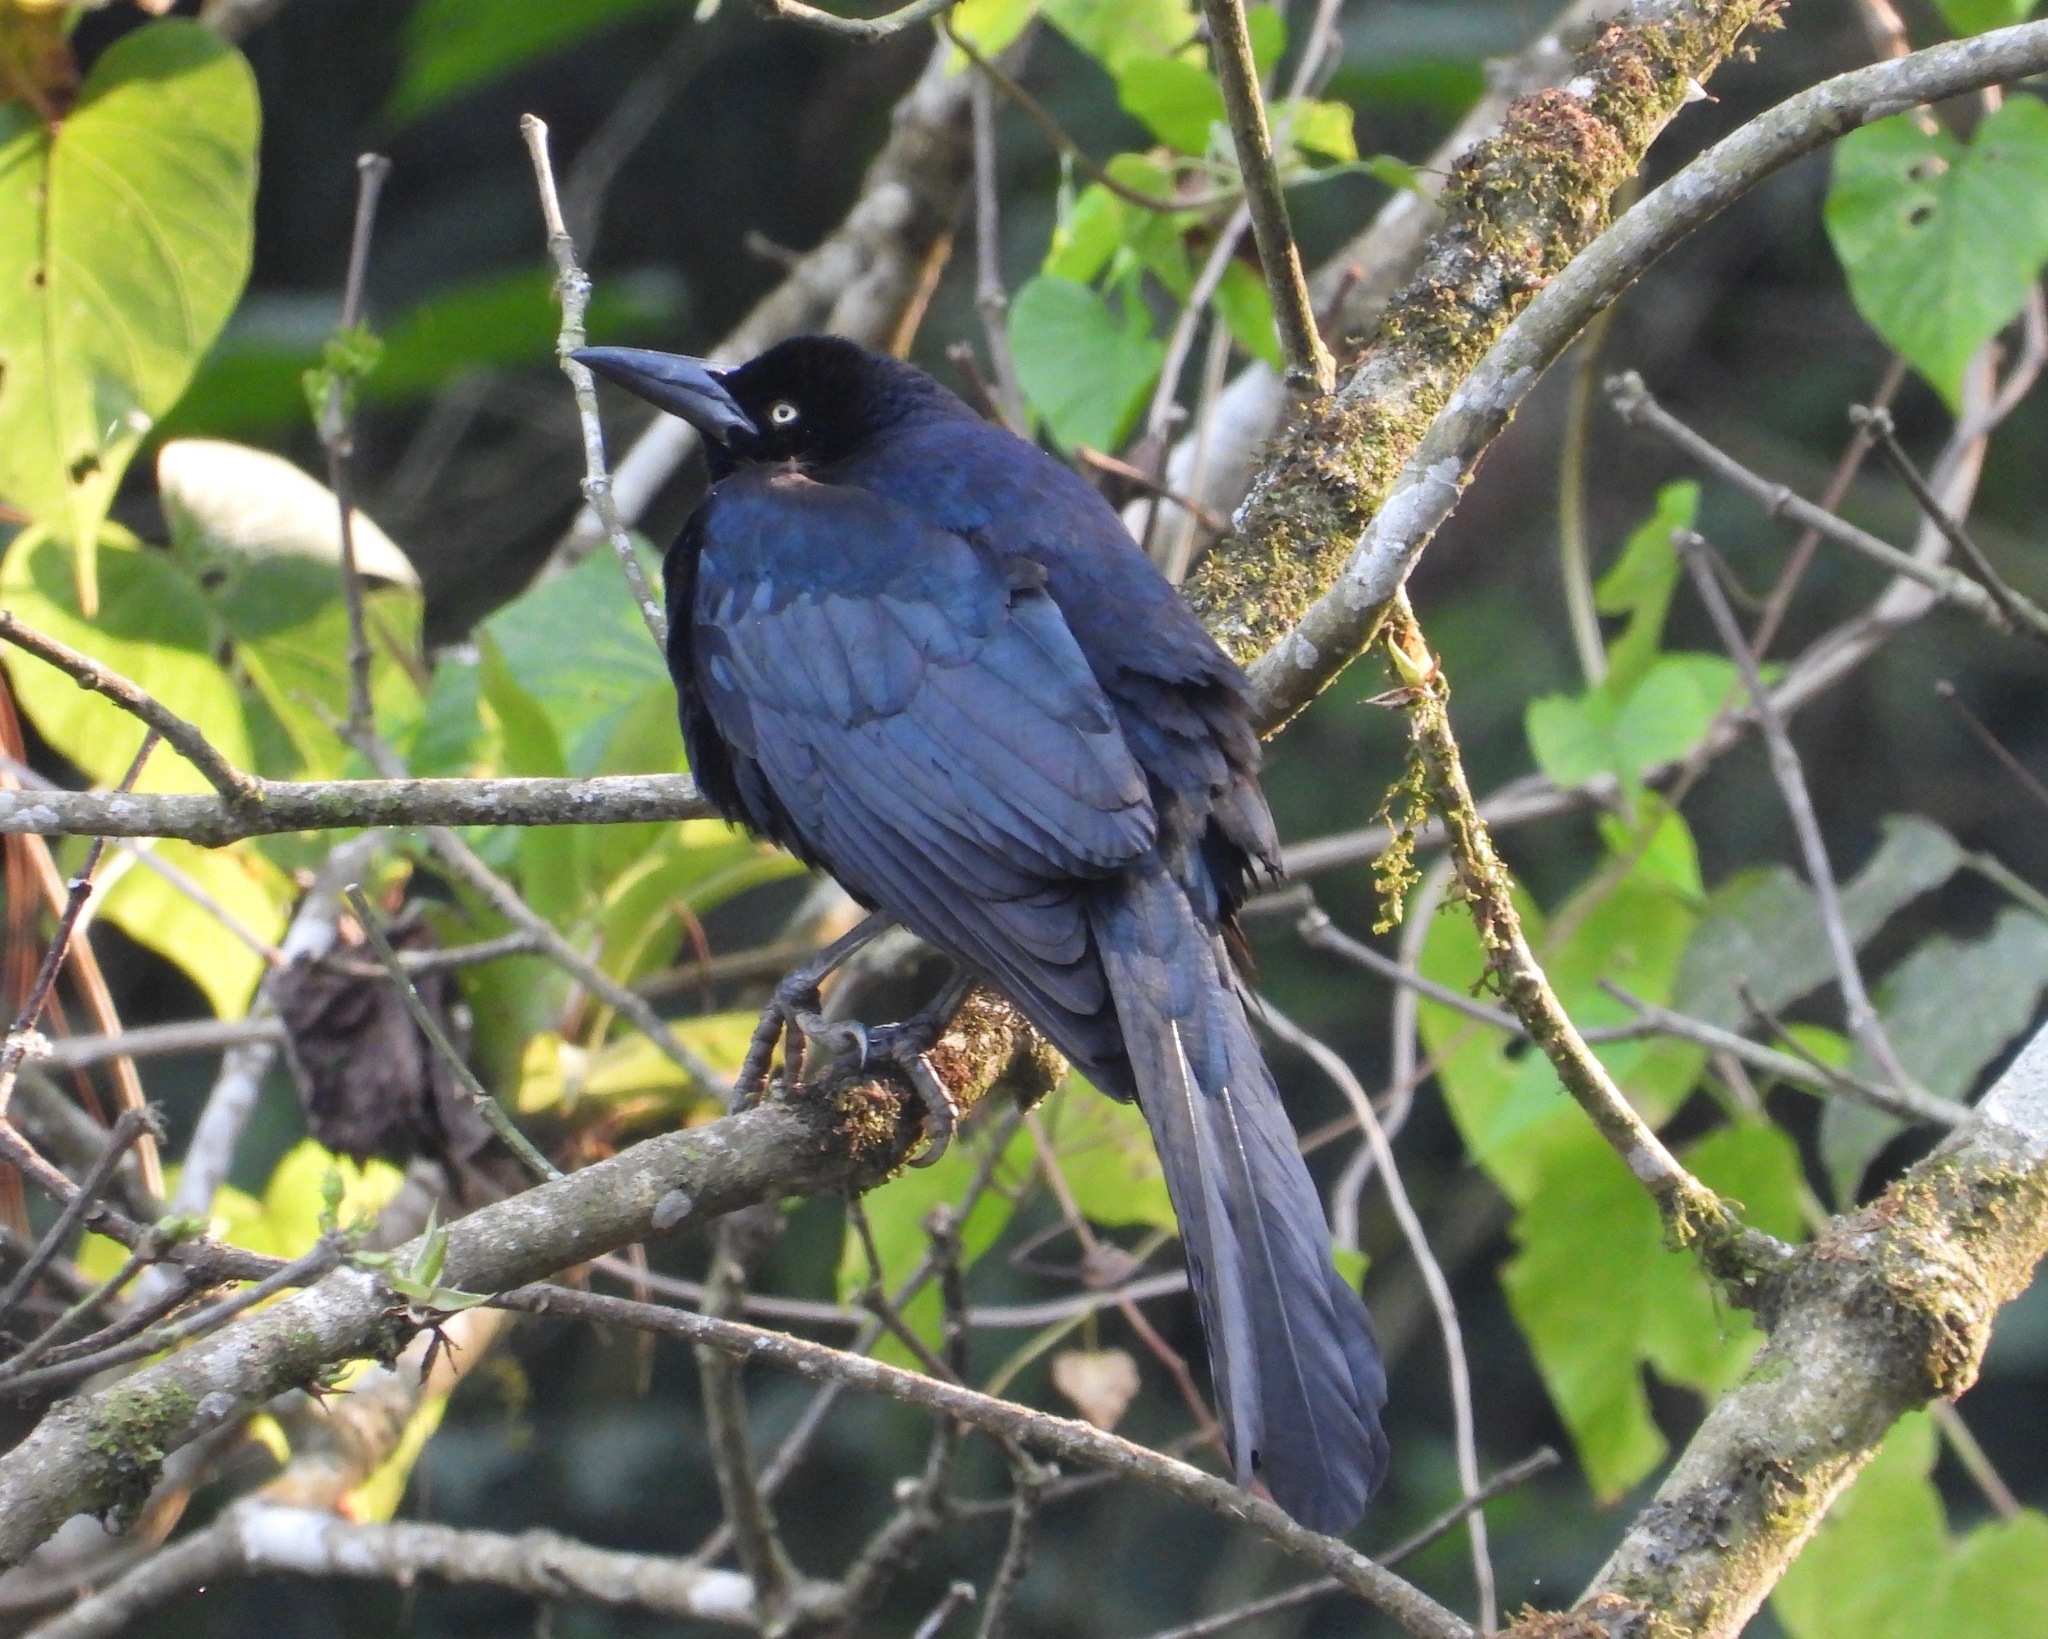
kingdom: Animalia
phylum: Chordata
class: Aves
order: Passeriformes
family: Icteridae
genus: Quiscalus
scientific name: Quiscalus mexicanus
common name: Great-tailed grackle
